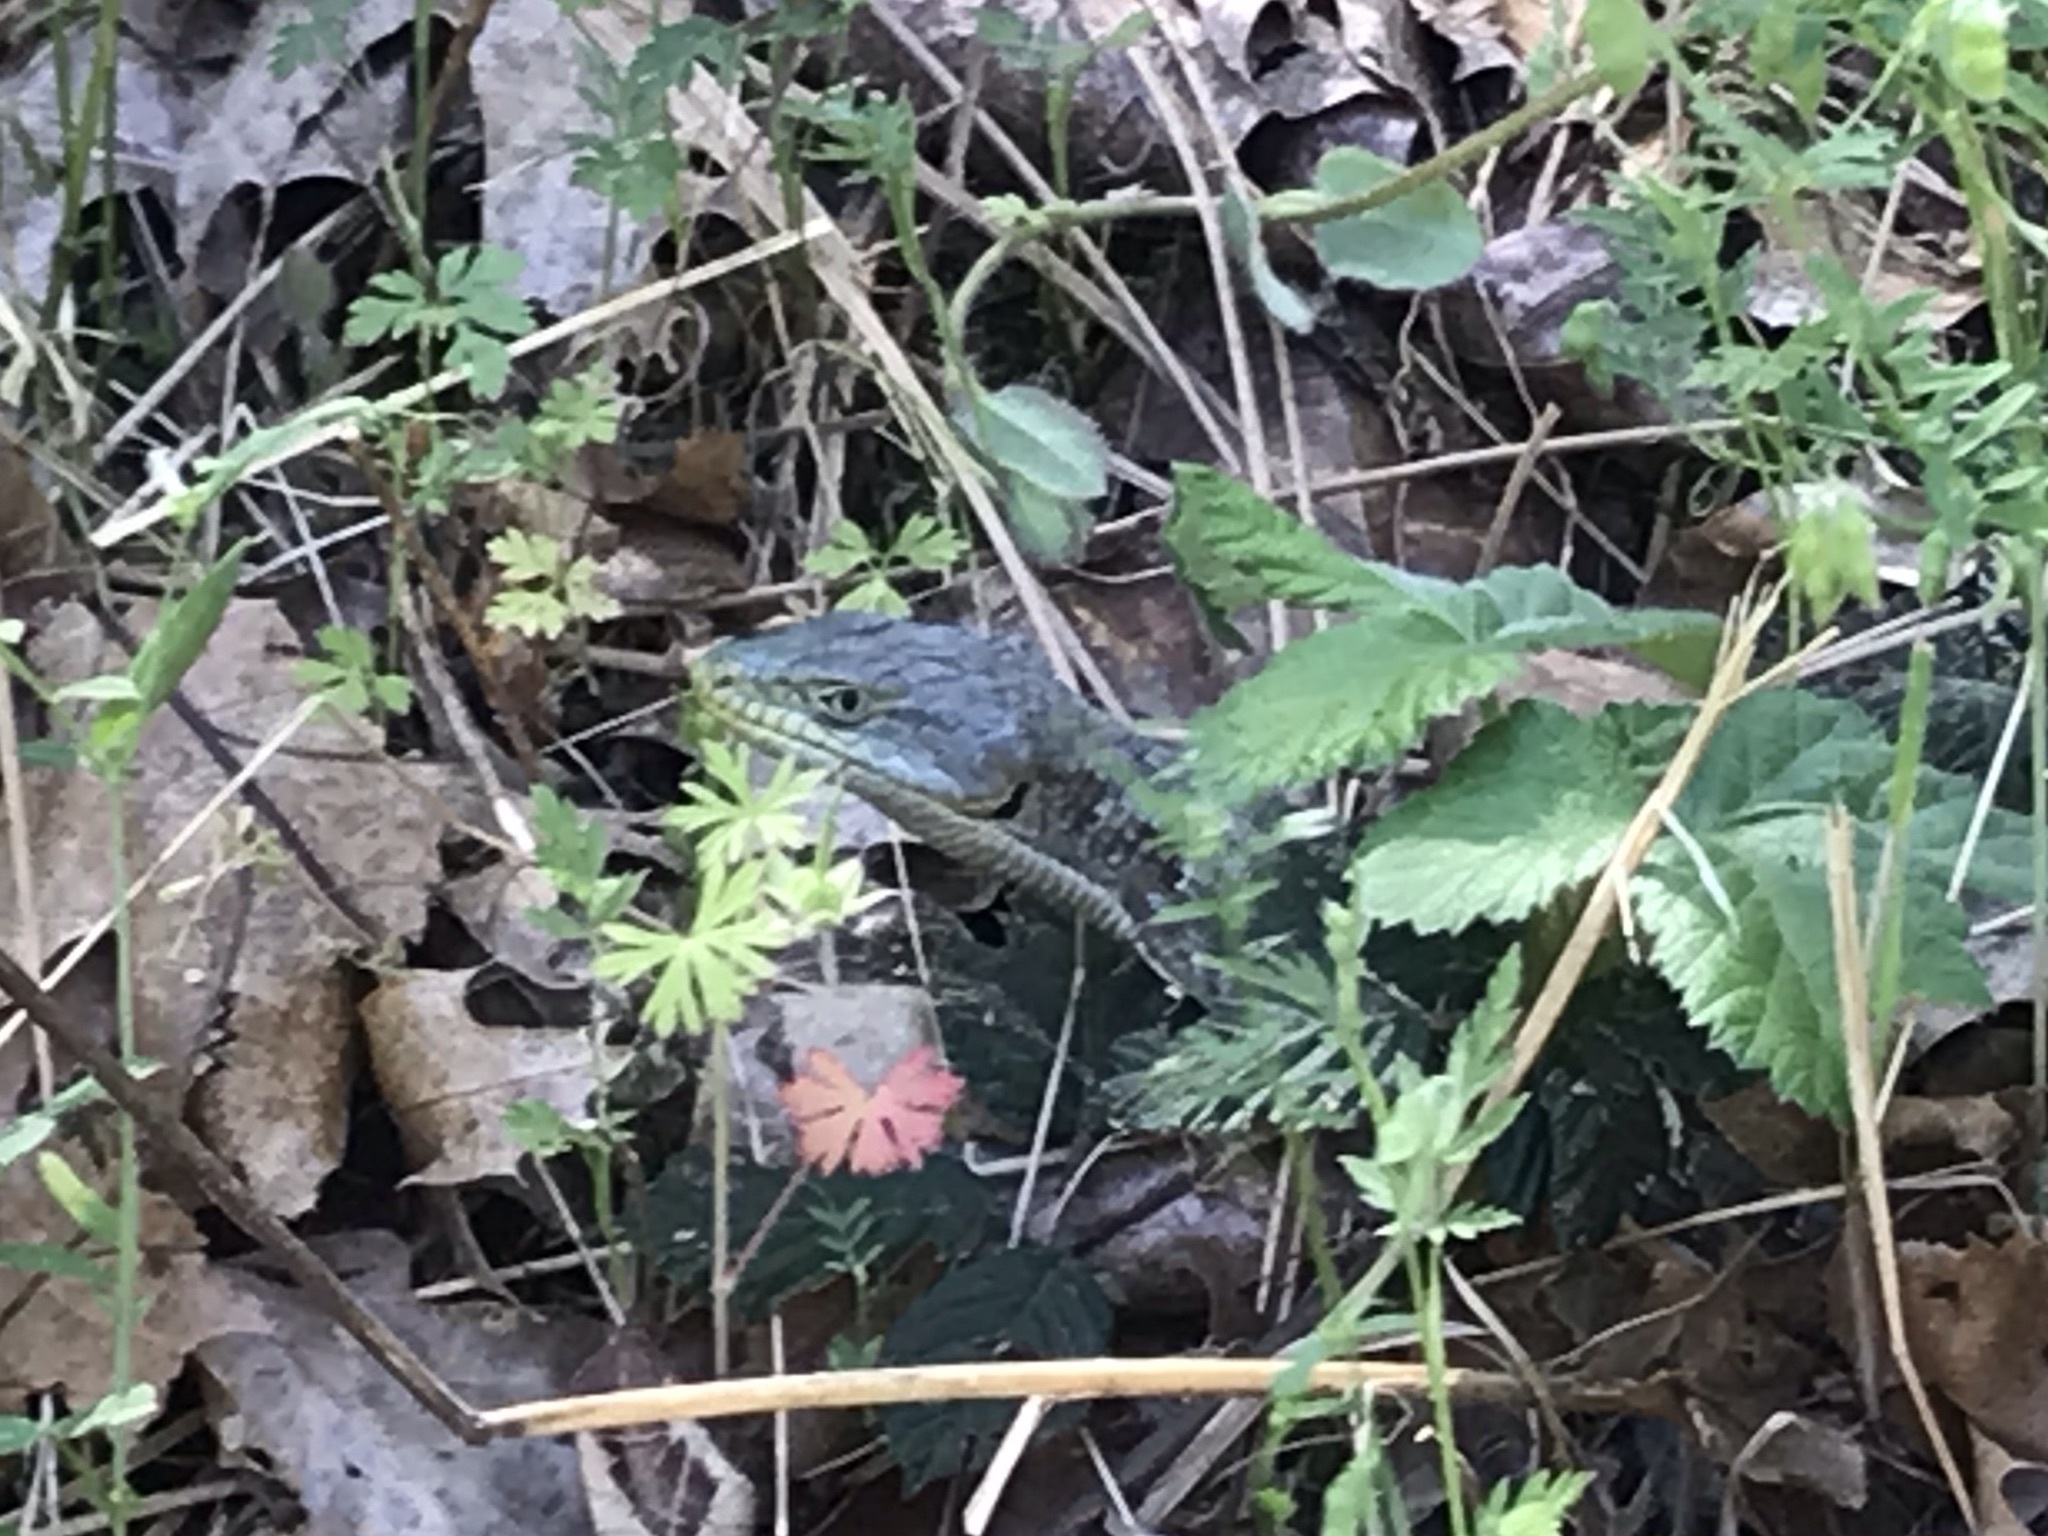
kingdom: Animalia
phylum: Chordata
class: Squamata
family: Anguidae
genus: Elgaria
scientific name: Elgaria multicarinata
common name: Southern alligator lizard
